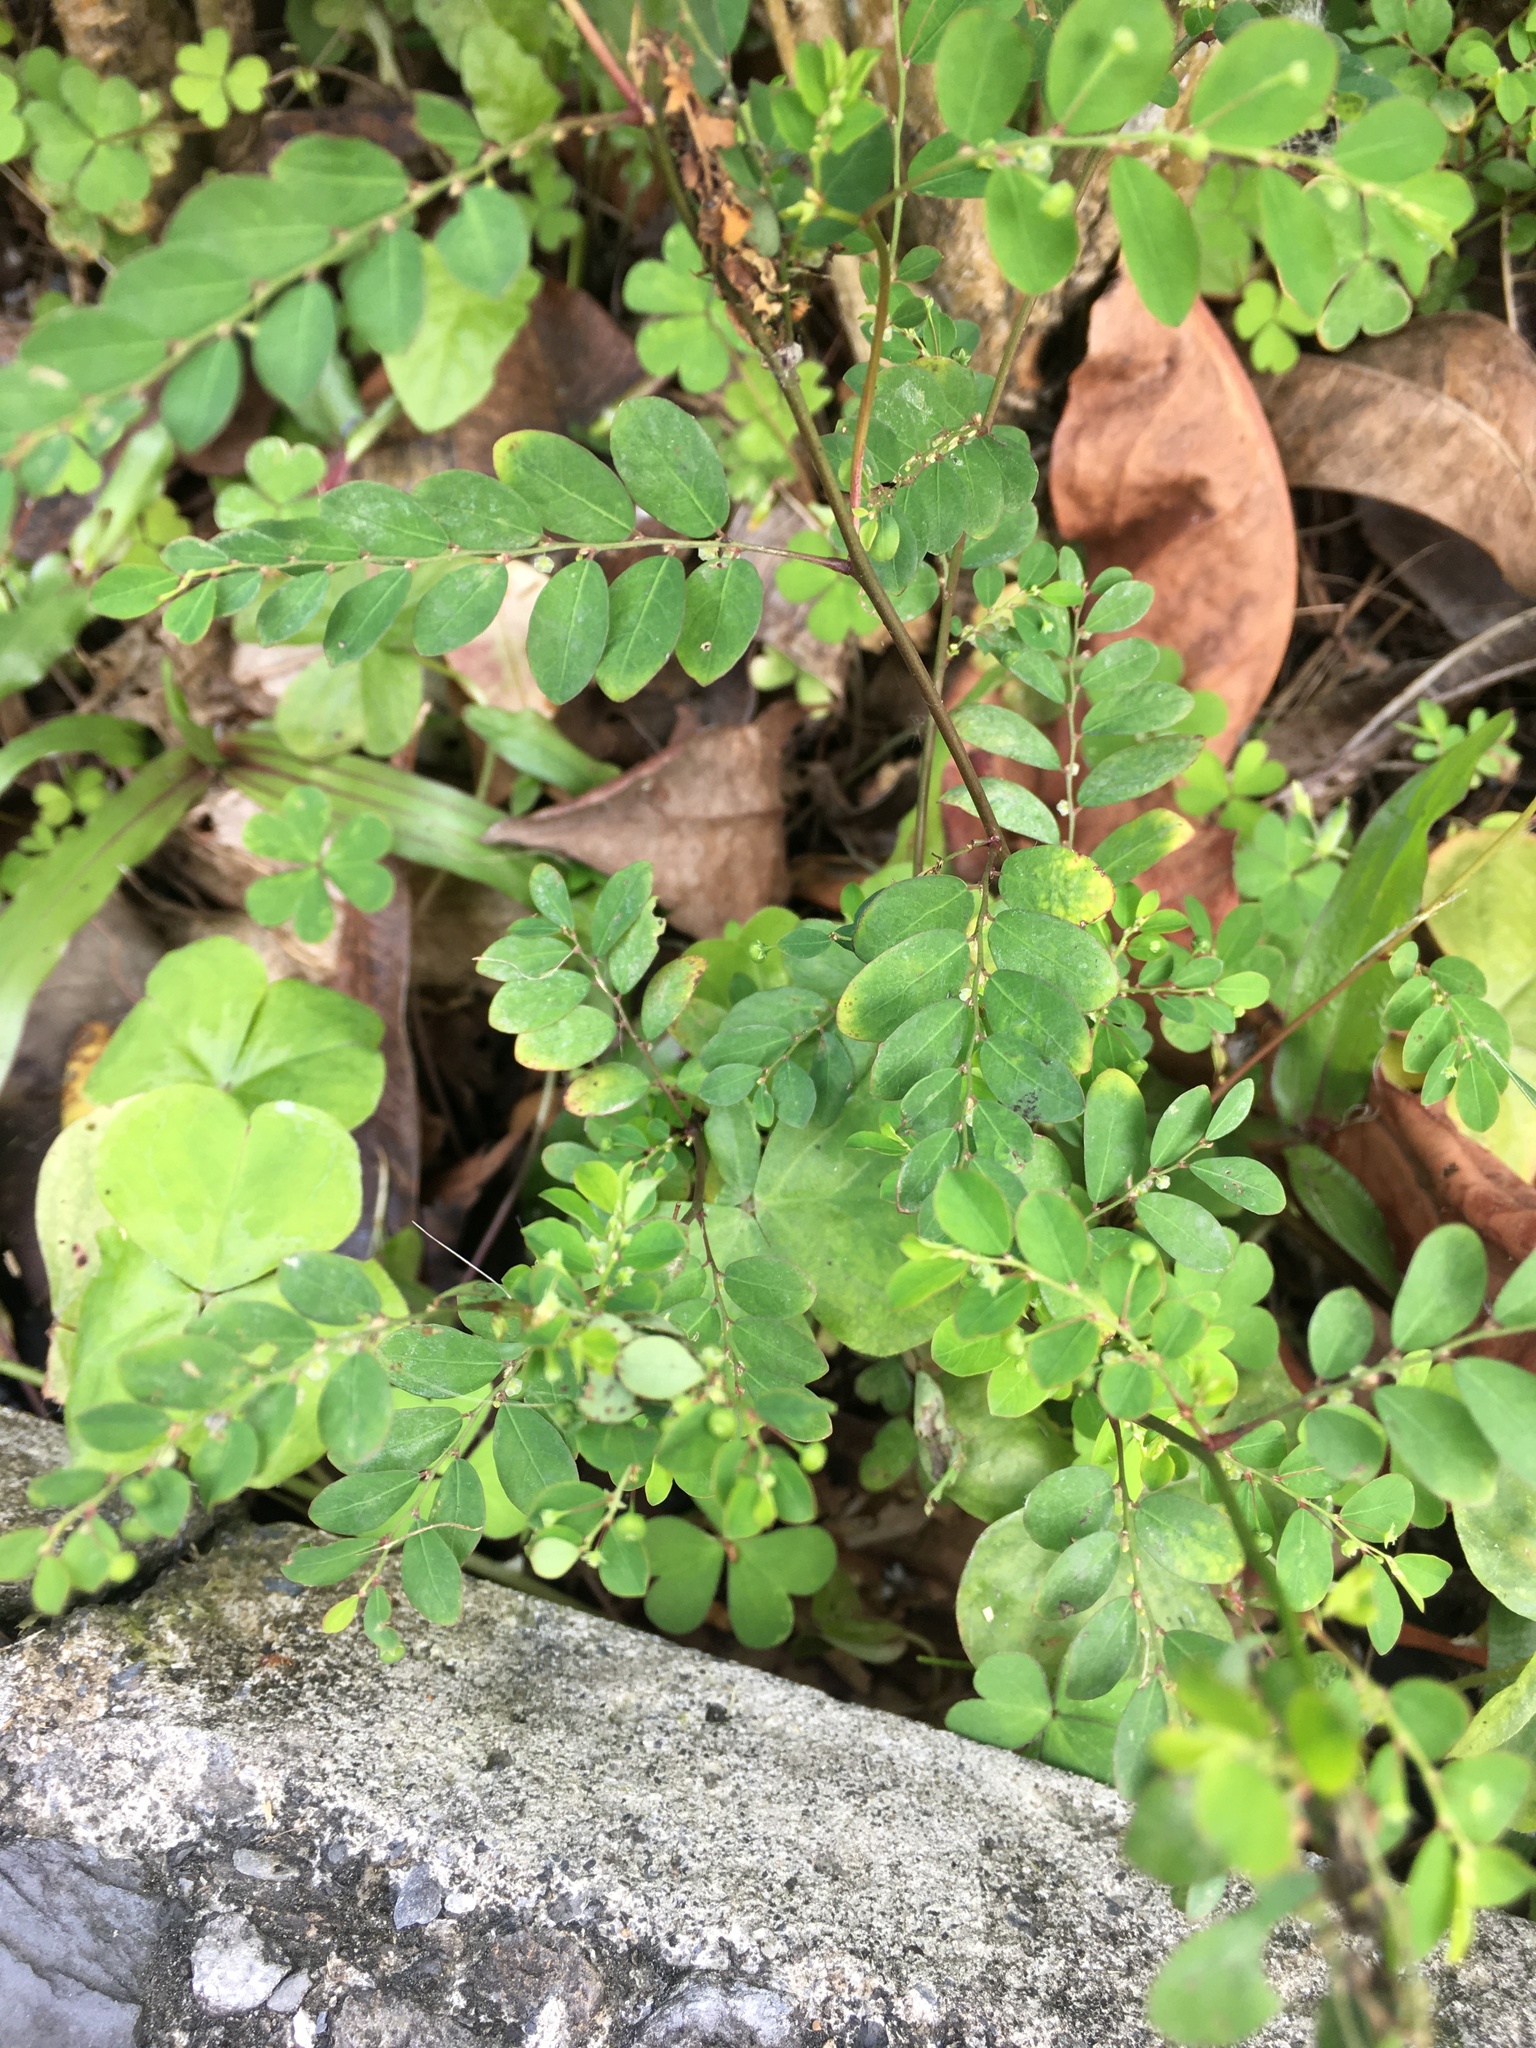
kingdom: Plantae
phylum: Tracheophyta
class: Magnoliopsida
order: Malpighiales
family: Phyllanthaceae
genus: Phyllanthus
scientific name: Phyllanthus tenellus
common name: Mascarene island leaf-flower
